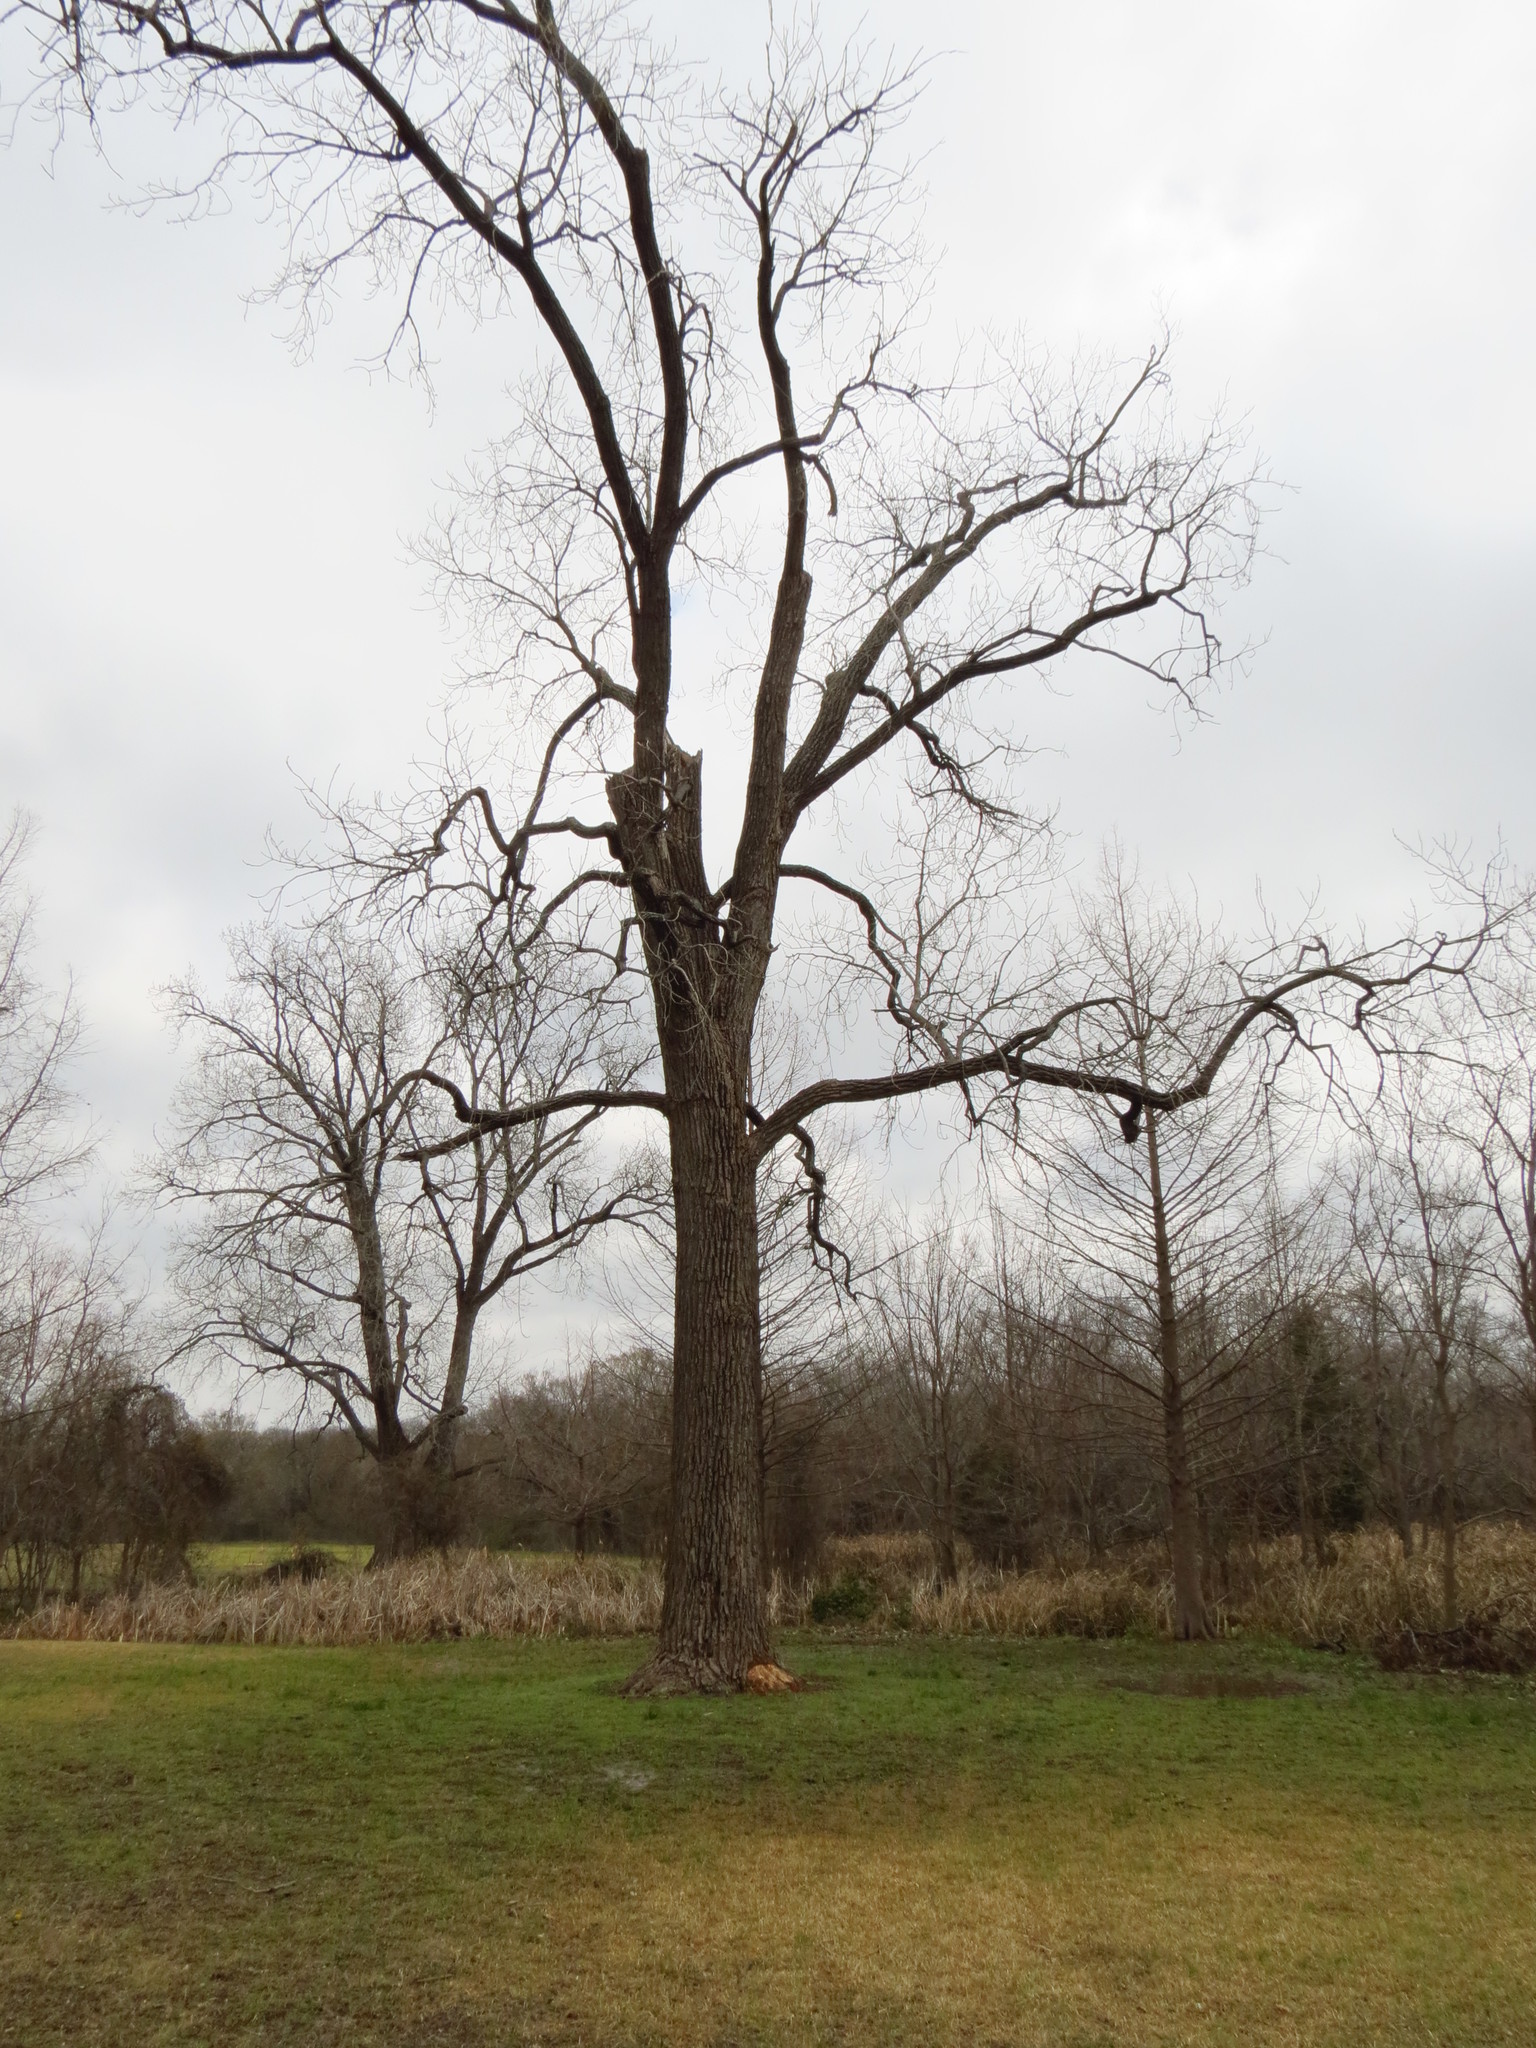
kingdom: Animalia
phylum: Chordata
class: Mammalia
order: Rodentia
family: Castoridae
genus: Castor
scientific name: Castor canadensis
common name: American beaver
